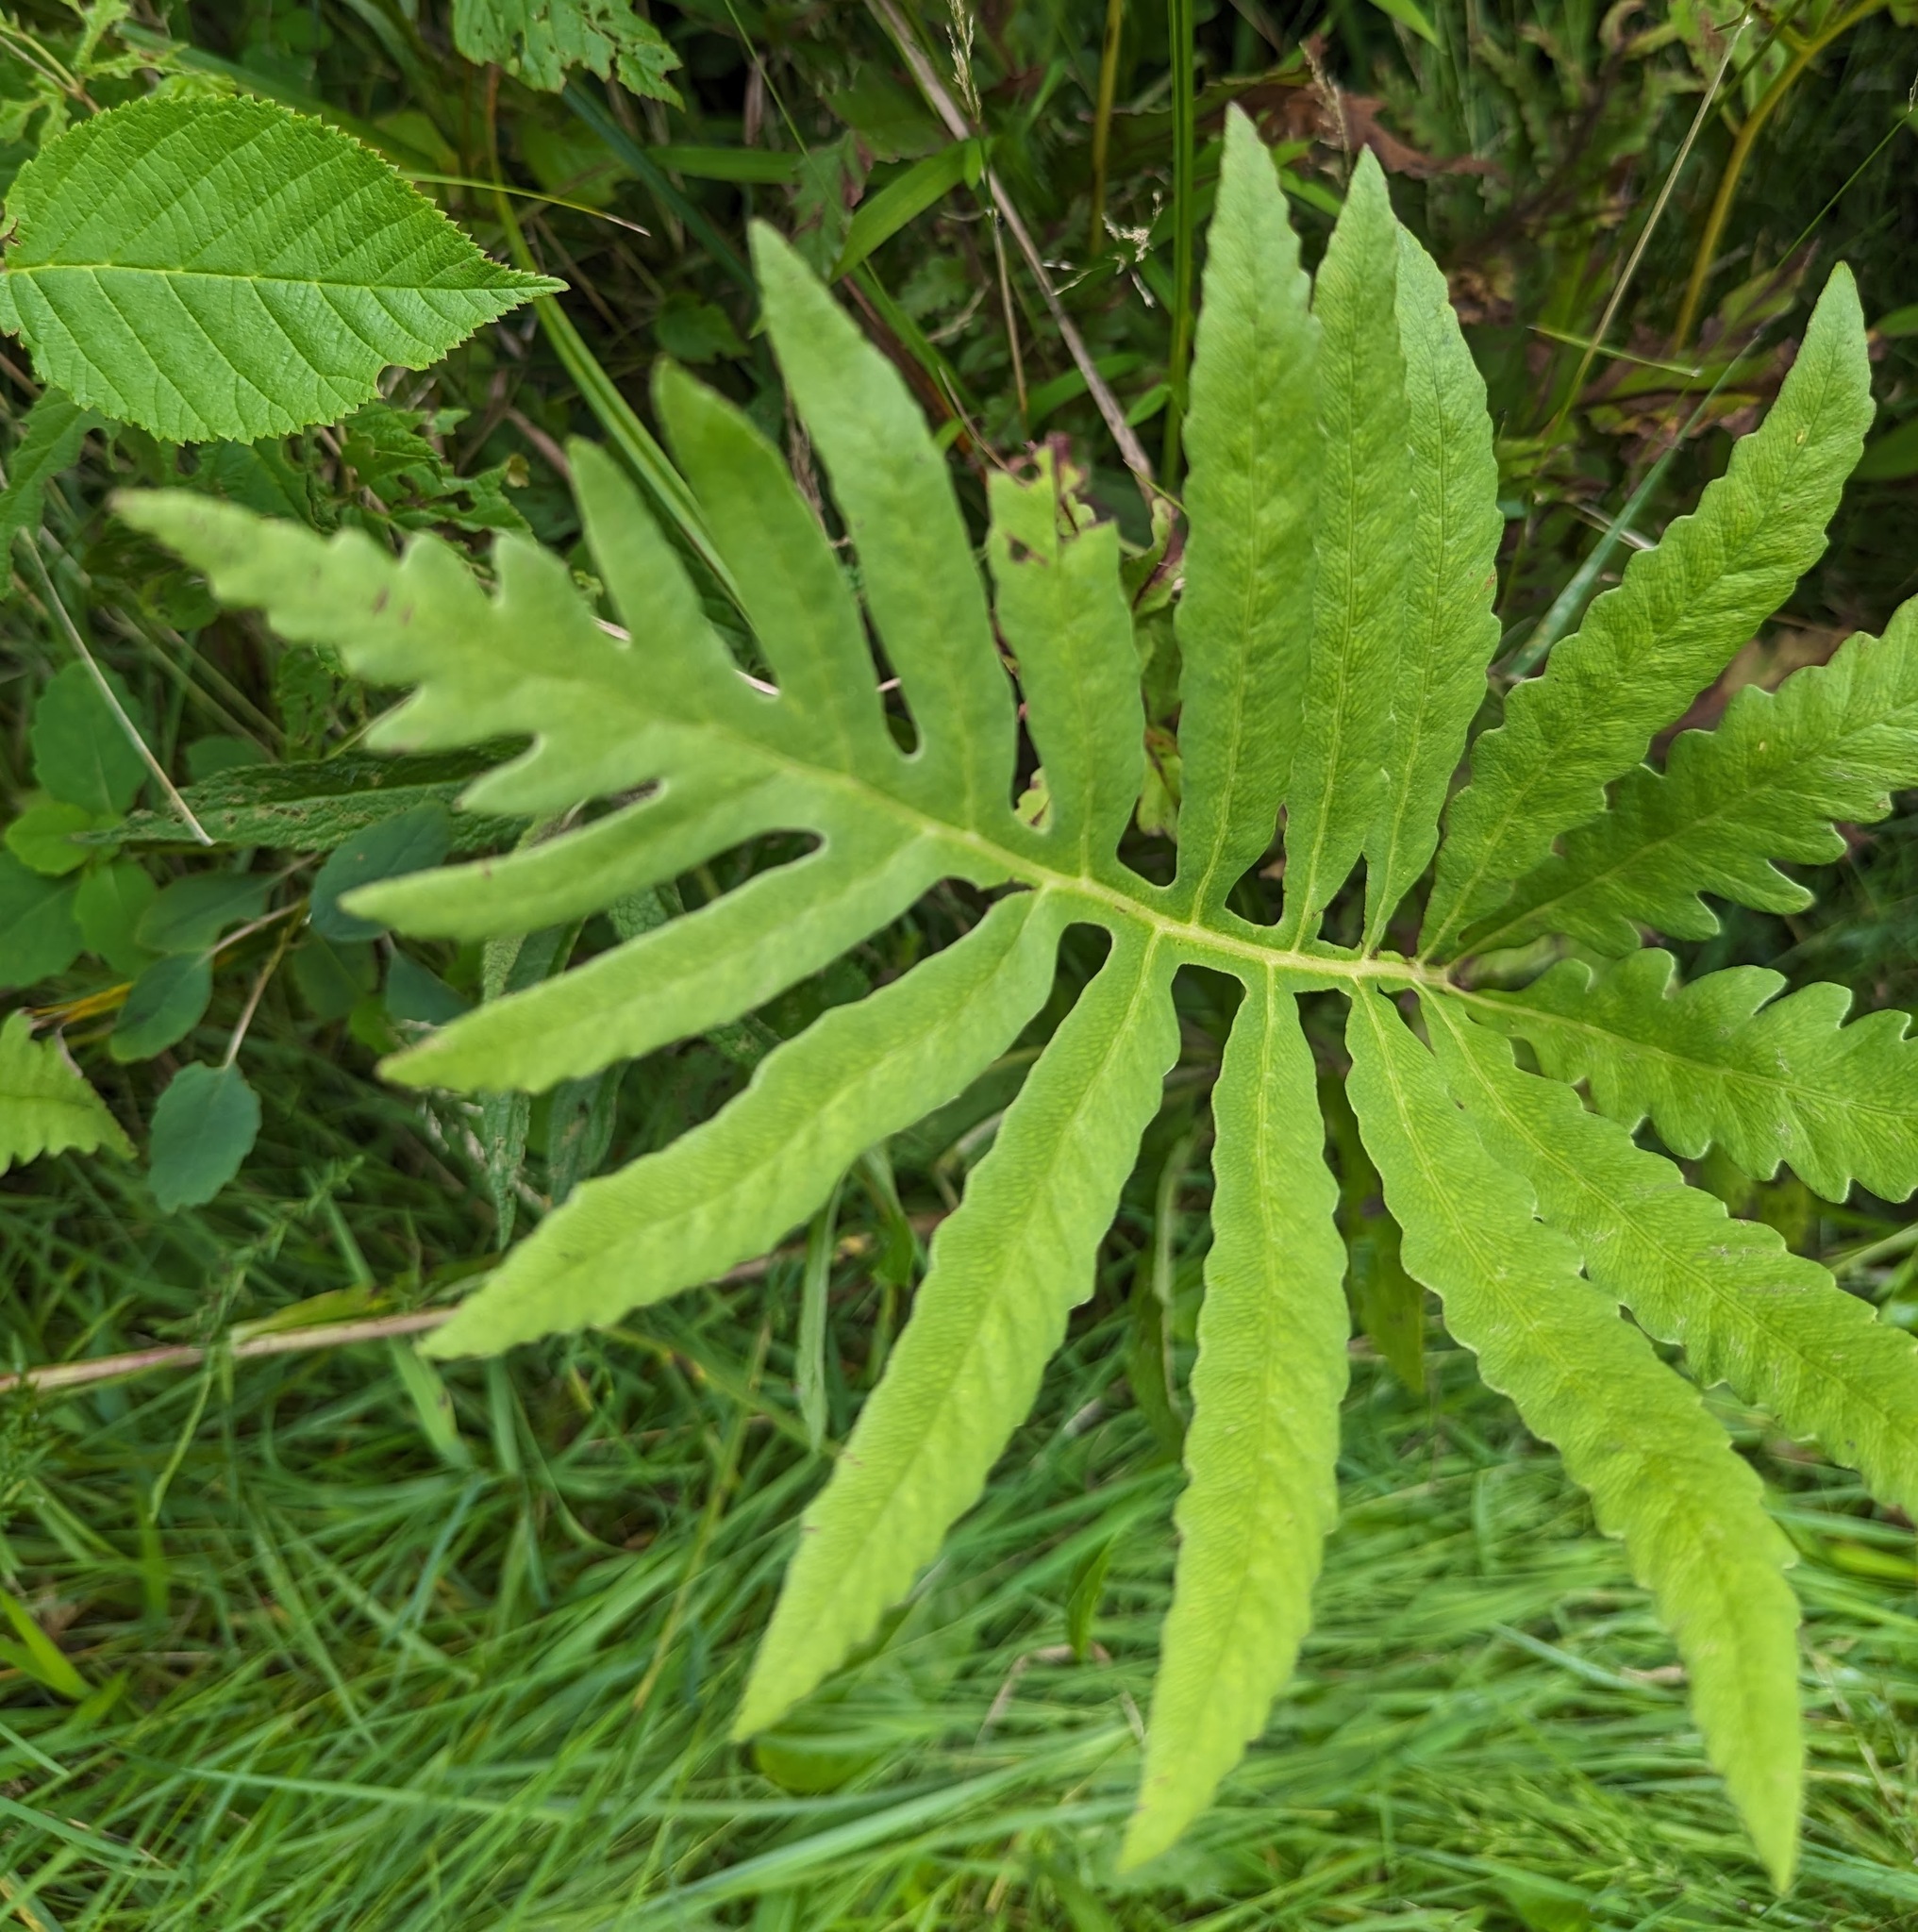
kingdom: Plantae
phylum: Tracheophyta
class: Polypodiopsida
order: Polypodiales
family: Onocleaceae
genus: Onoclea
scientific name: Onoclea sensibilis
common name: Sensitive fern
